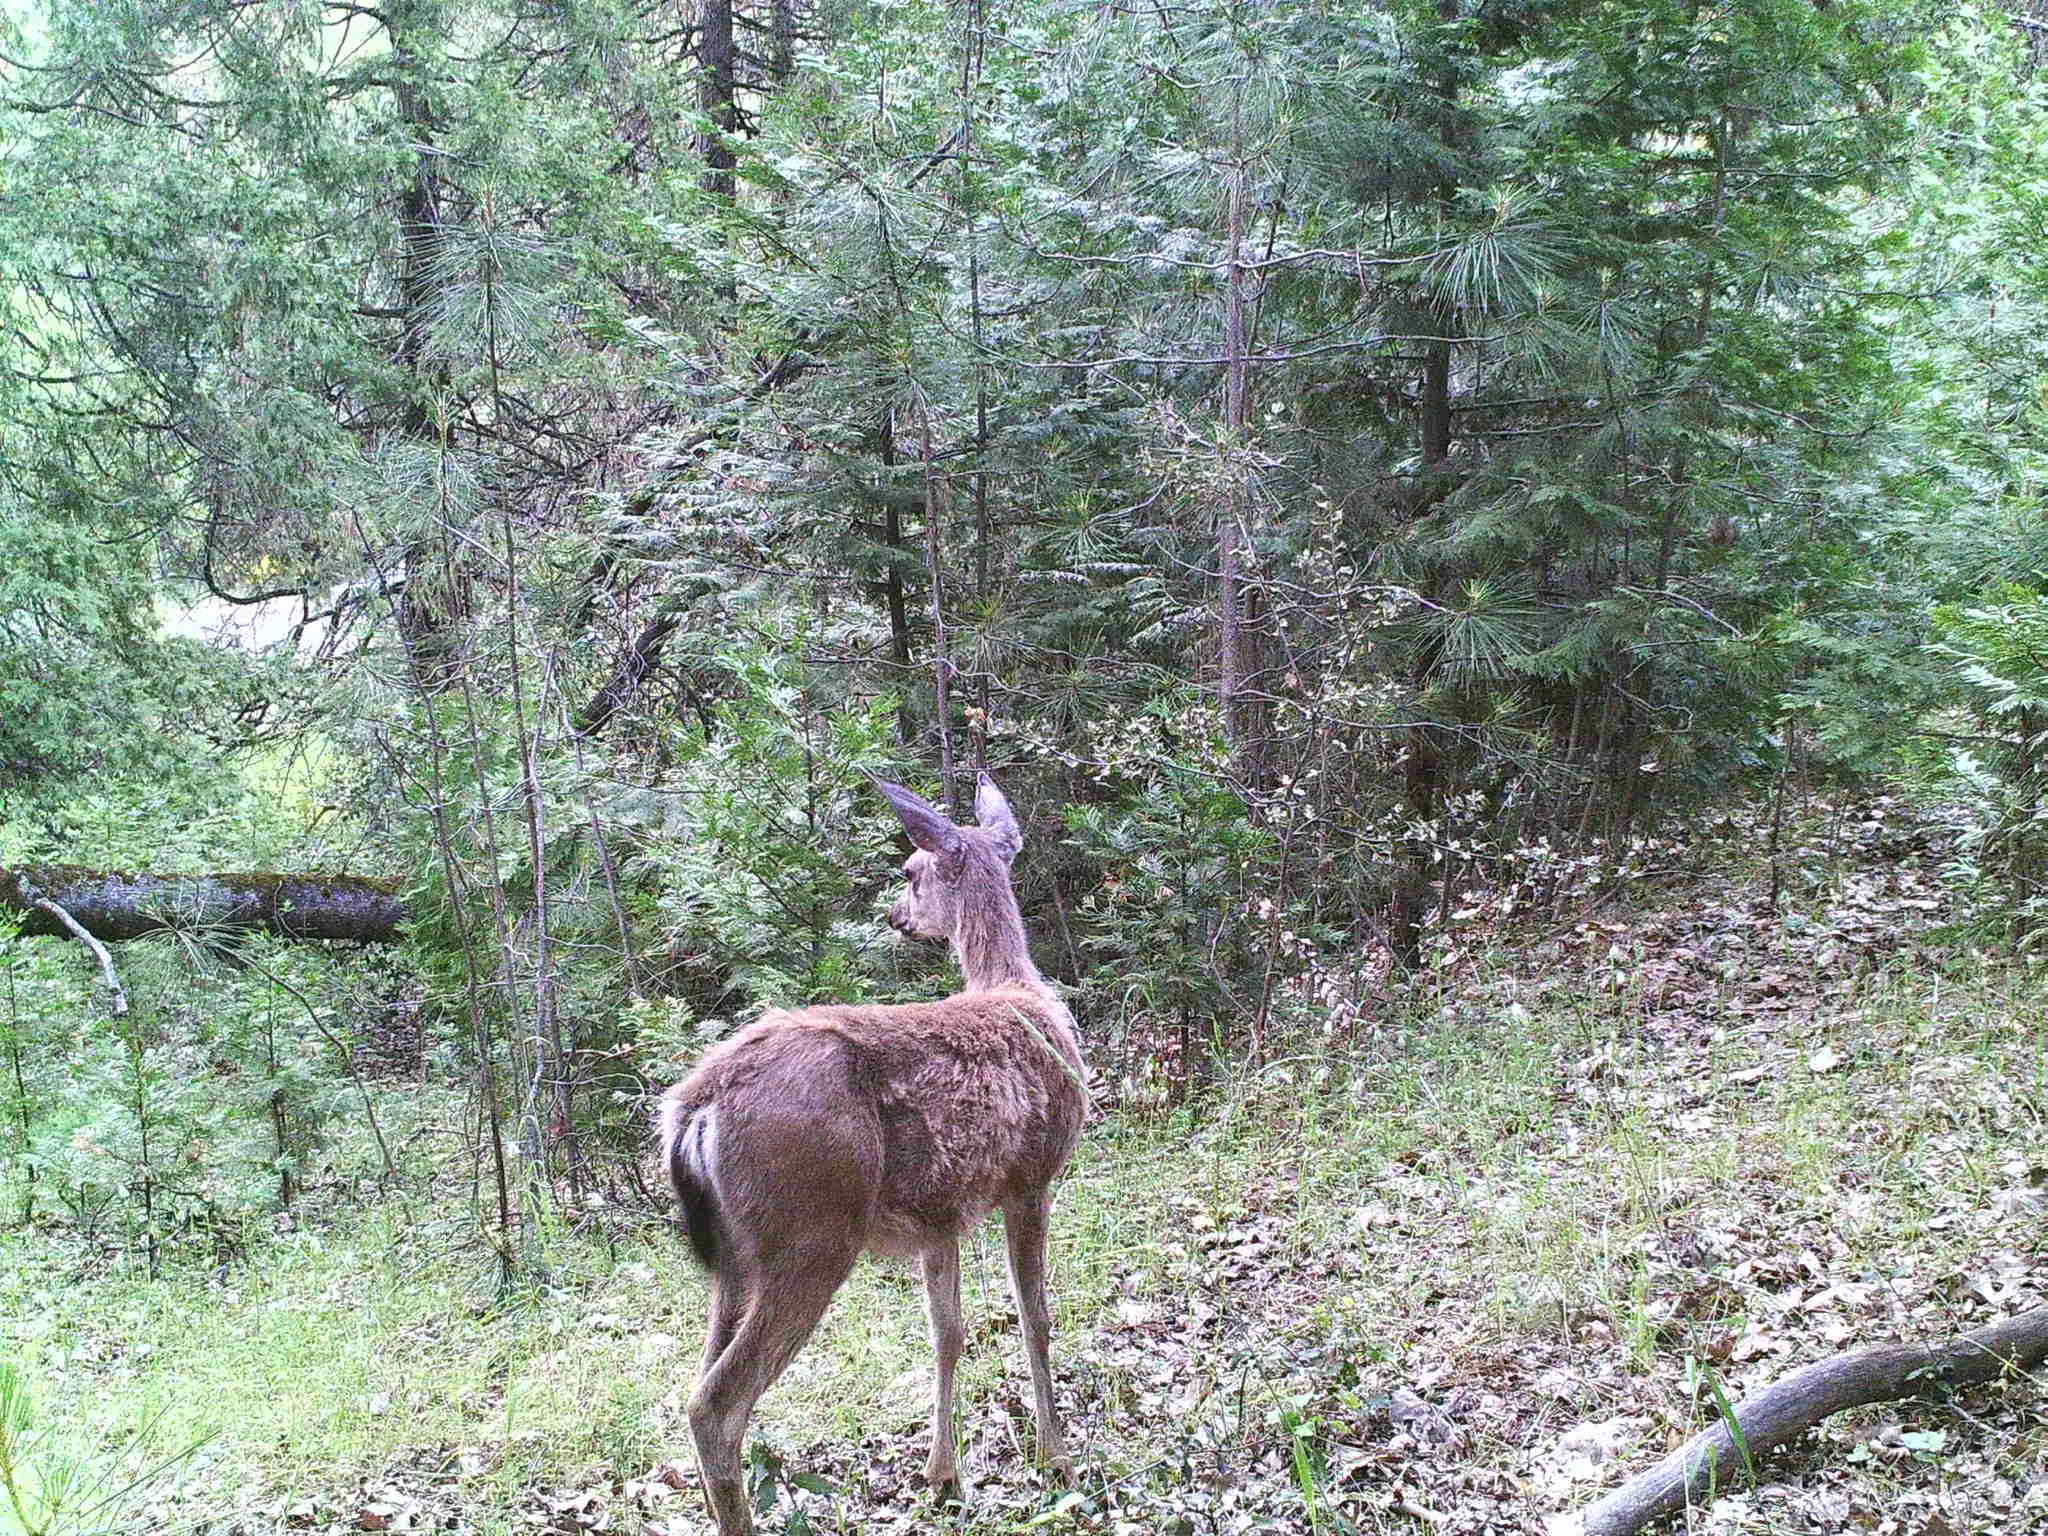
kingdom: Animalia
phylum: Chordata
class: Mammalia
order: Artiodactyla
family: Cervidae
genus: Odocoileus
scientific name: Odocoileus hemionus
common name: Mule deer
